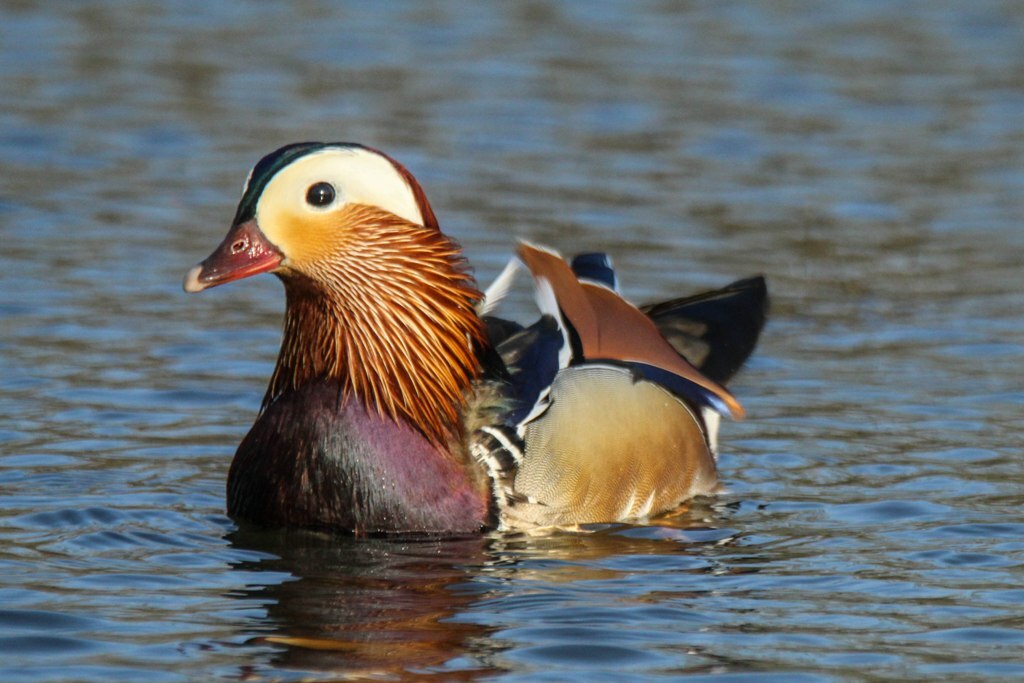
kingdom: Animalia
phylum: Chordata
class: Aves
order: Anseriformes
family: Anatidae
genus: Aix
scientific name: Aix galericulata
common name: Mandarin duck
